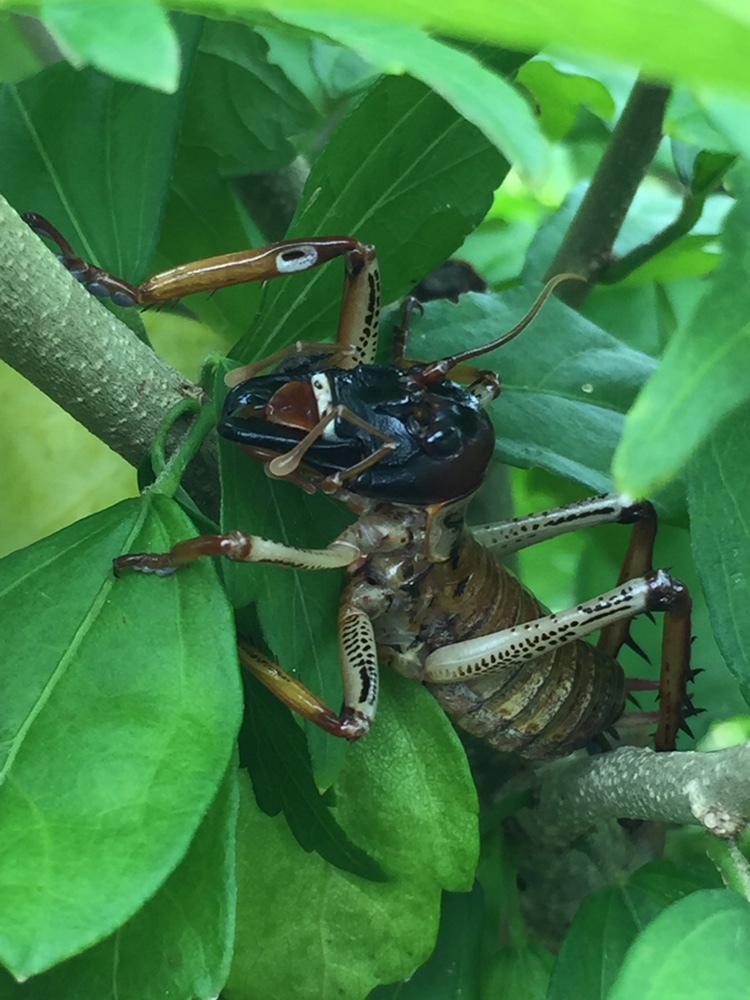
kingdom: Animalia
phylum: Arthropoda
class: Insecta
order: Orthoptera
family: Anostostomatidae
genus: Hemideina
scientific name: Hemideina thoracica
